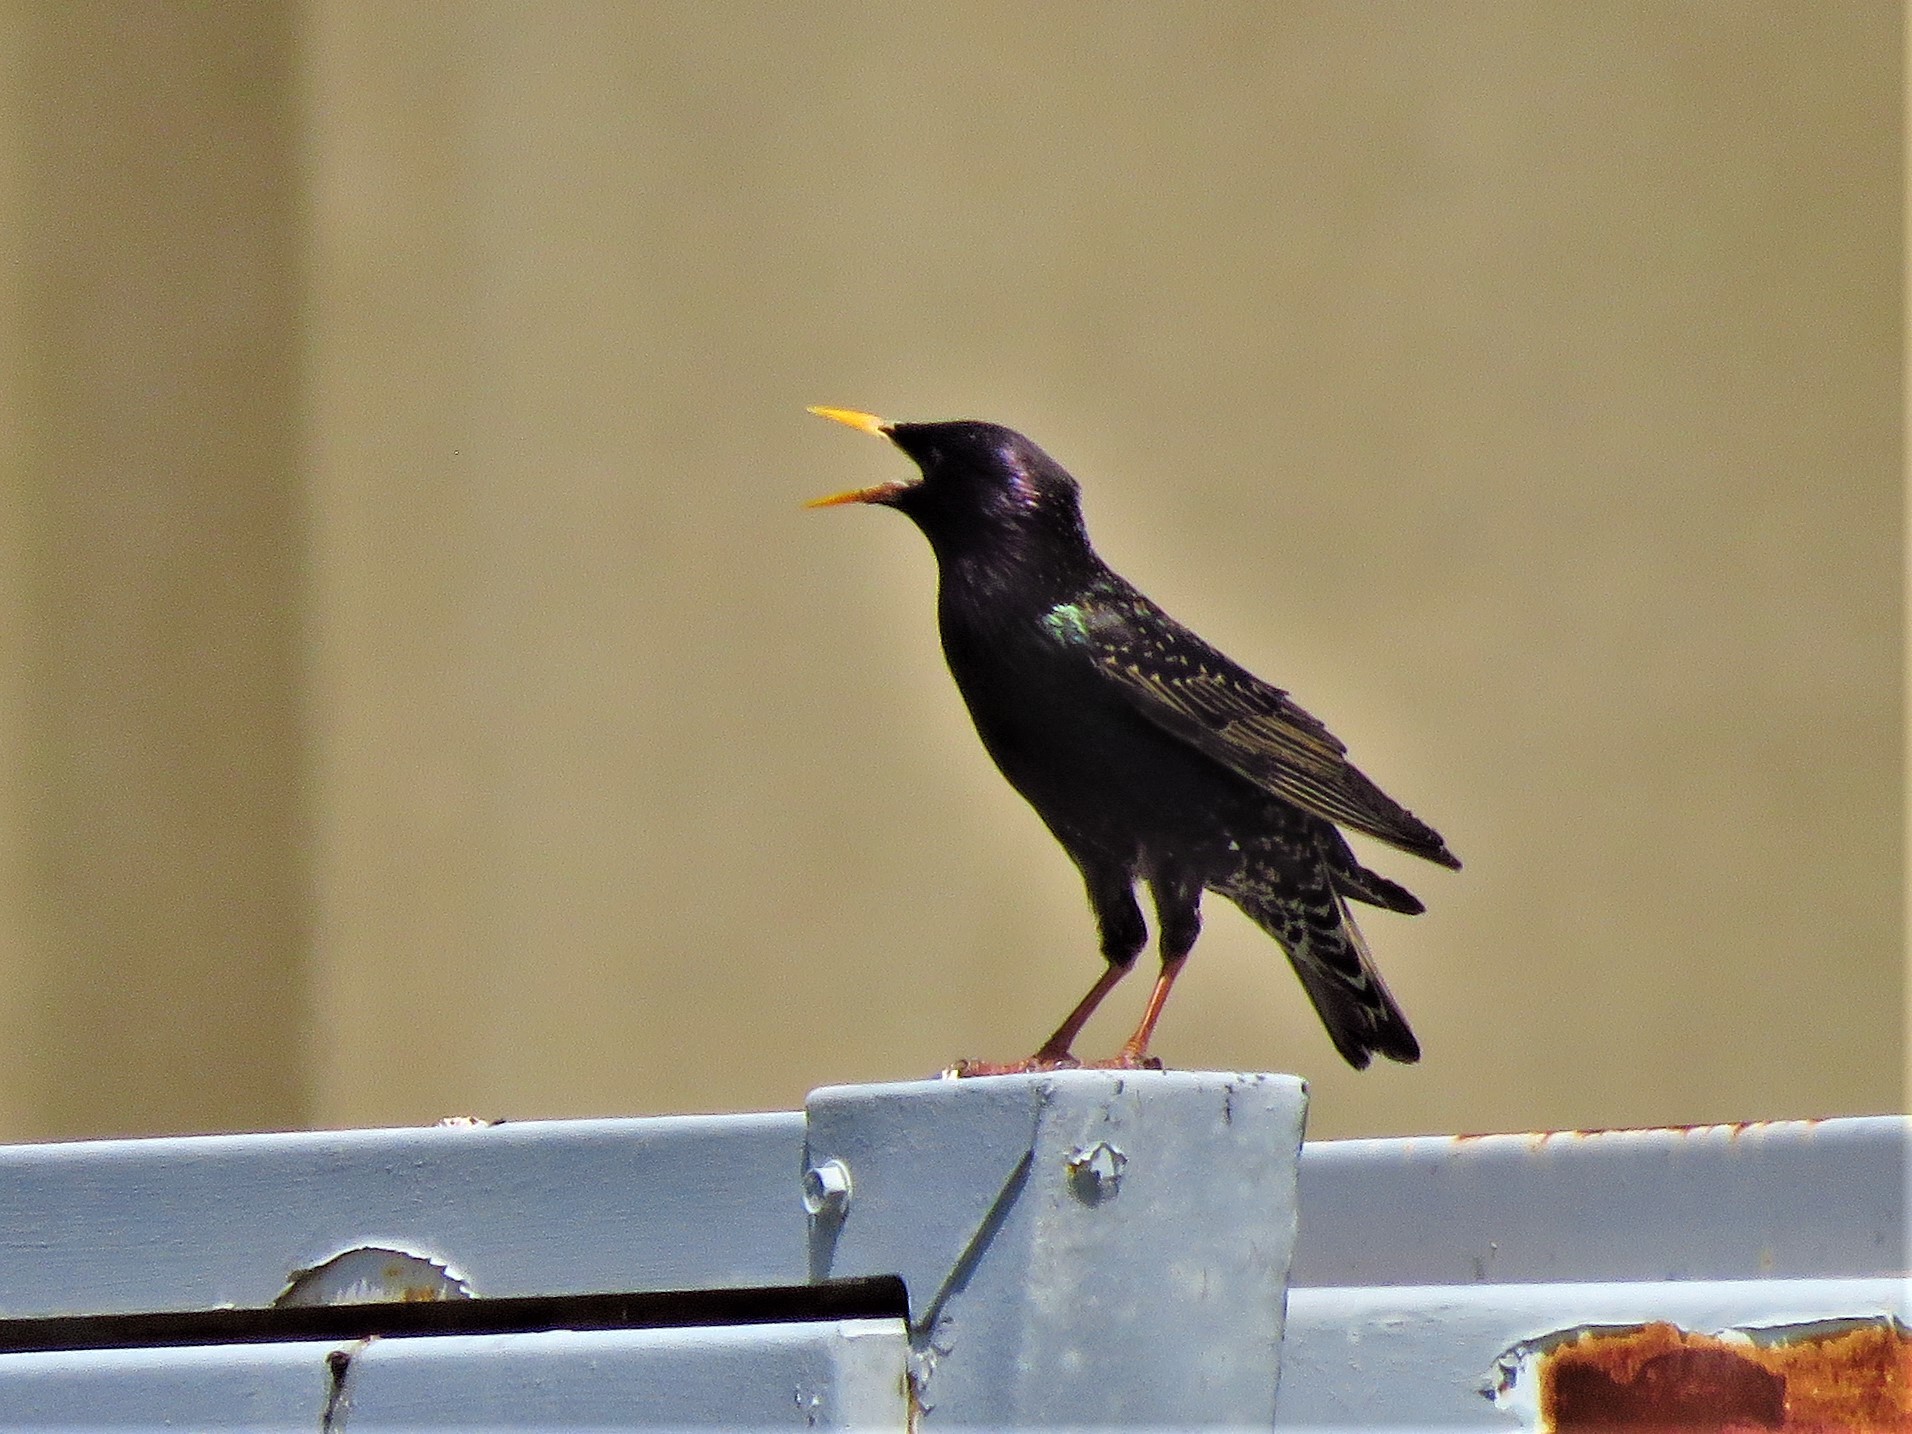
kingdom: Animalia
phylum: Chordata
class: Aves
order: Passeriformes
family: Sturnidae
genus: Sturnus
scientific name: Sturnus vulgaris
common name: Common starling
